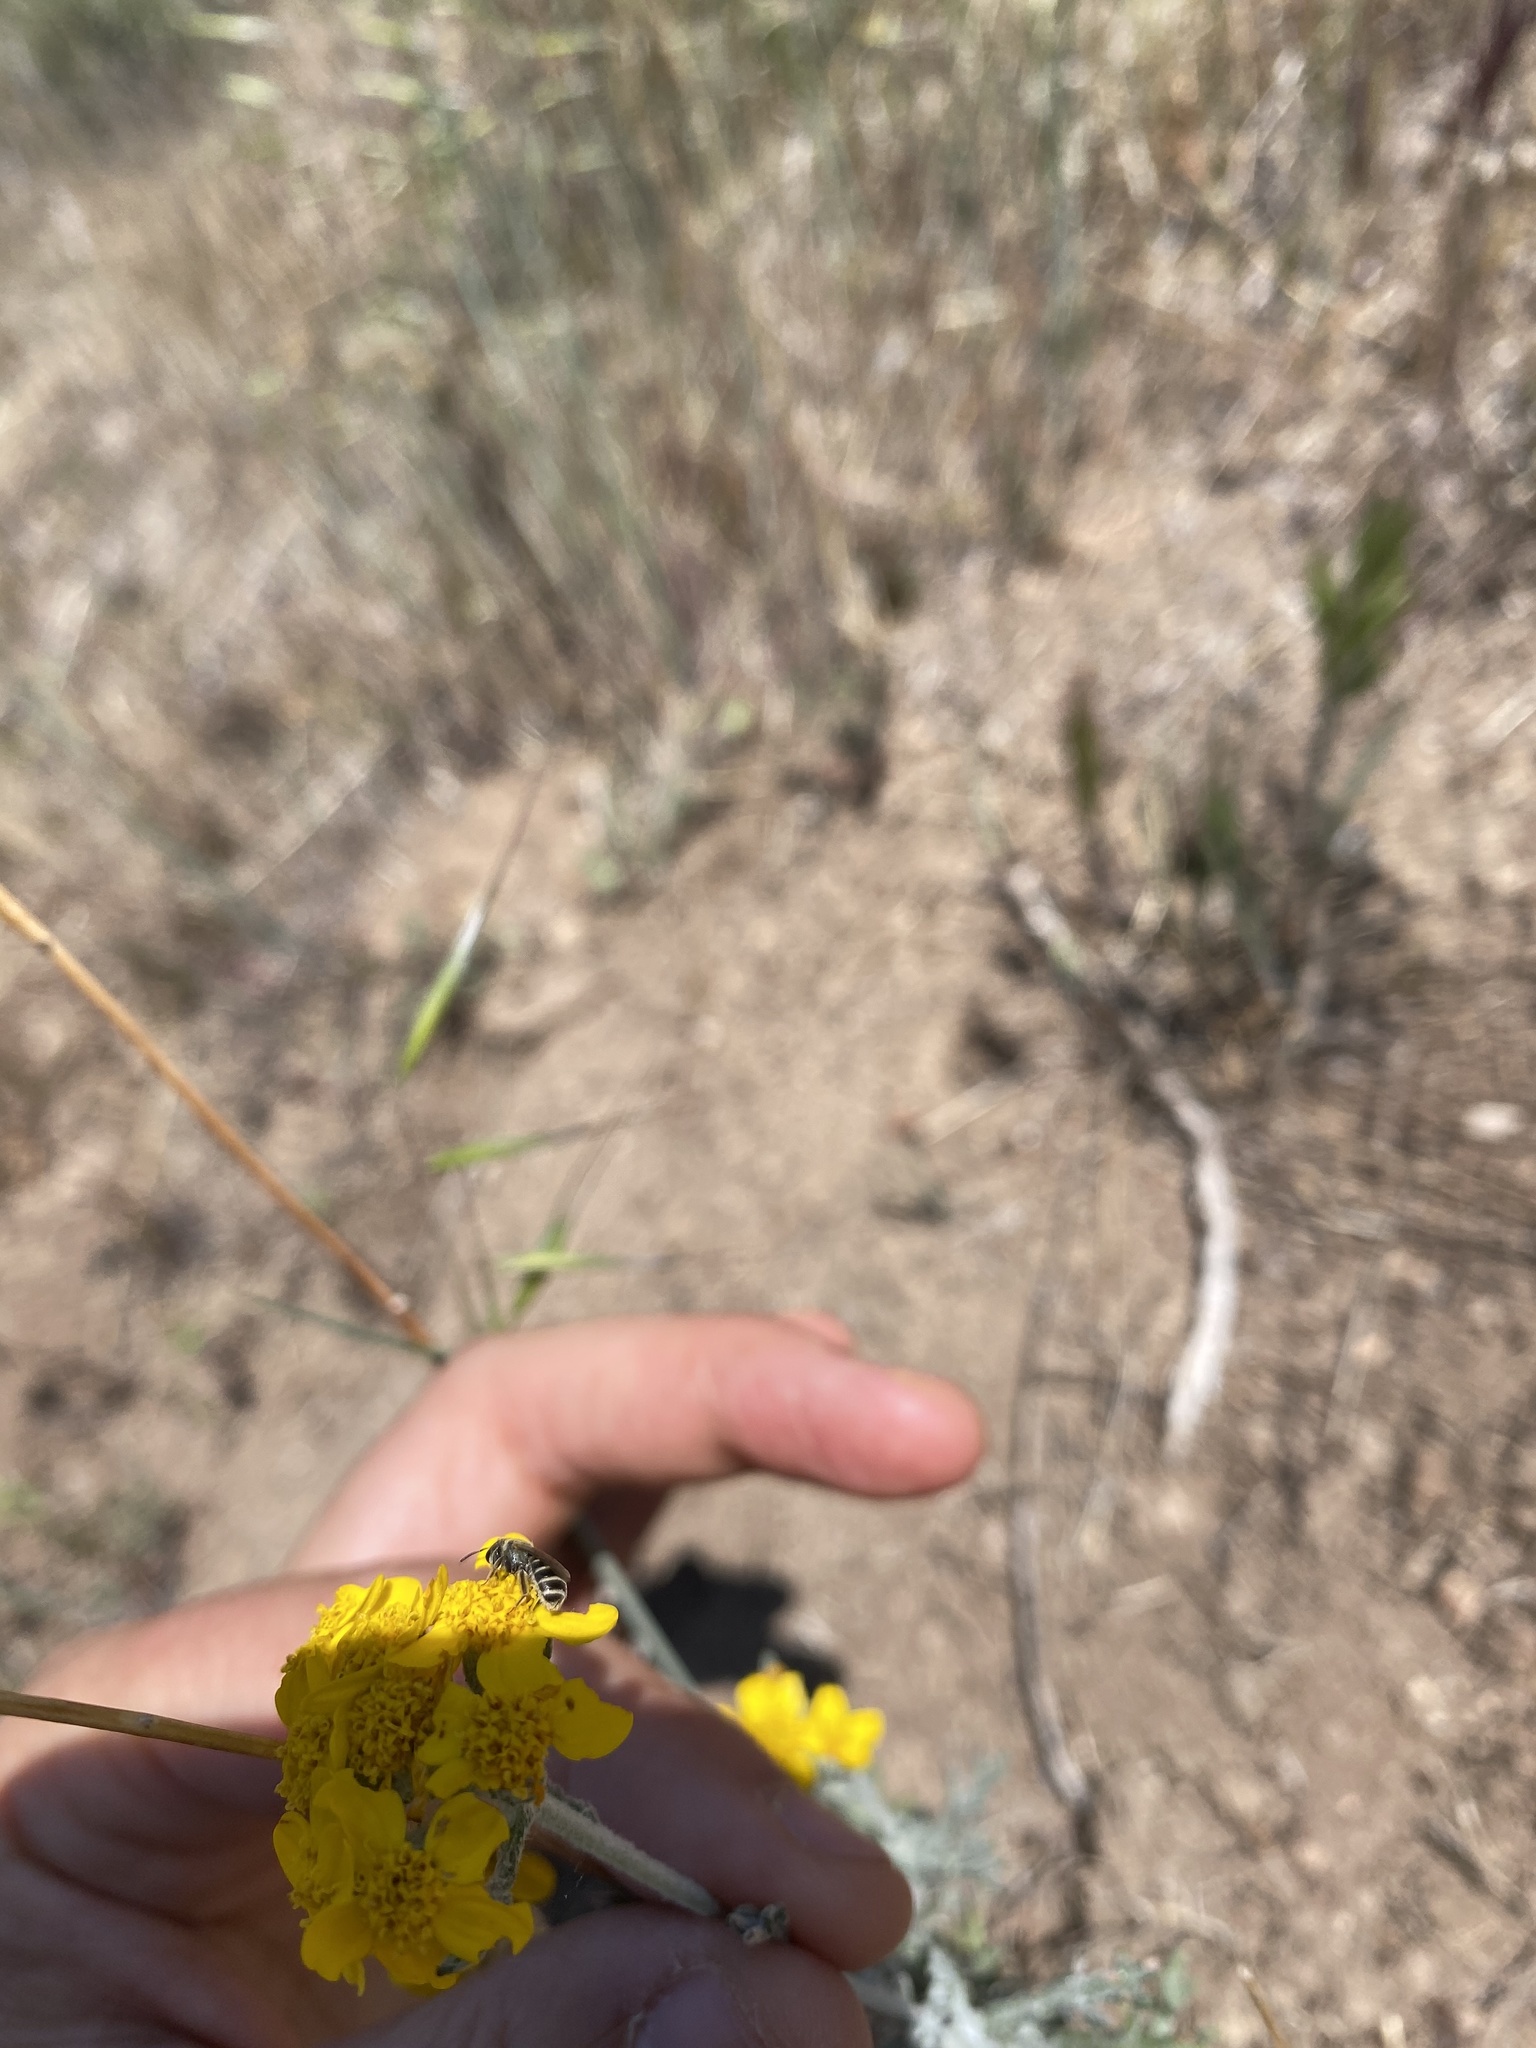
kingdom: Animalia
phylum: Arthropoda
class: Insecta
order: Hymenoptera
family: Halictidae
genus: Halictus
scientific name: Halictus tripartitus
